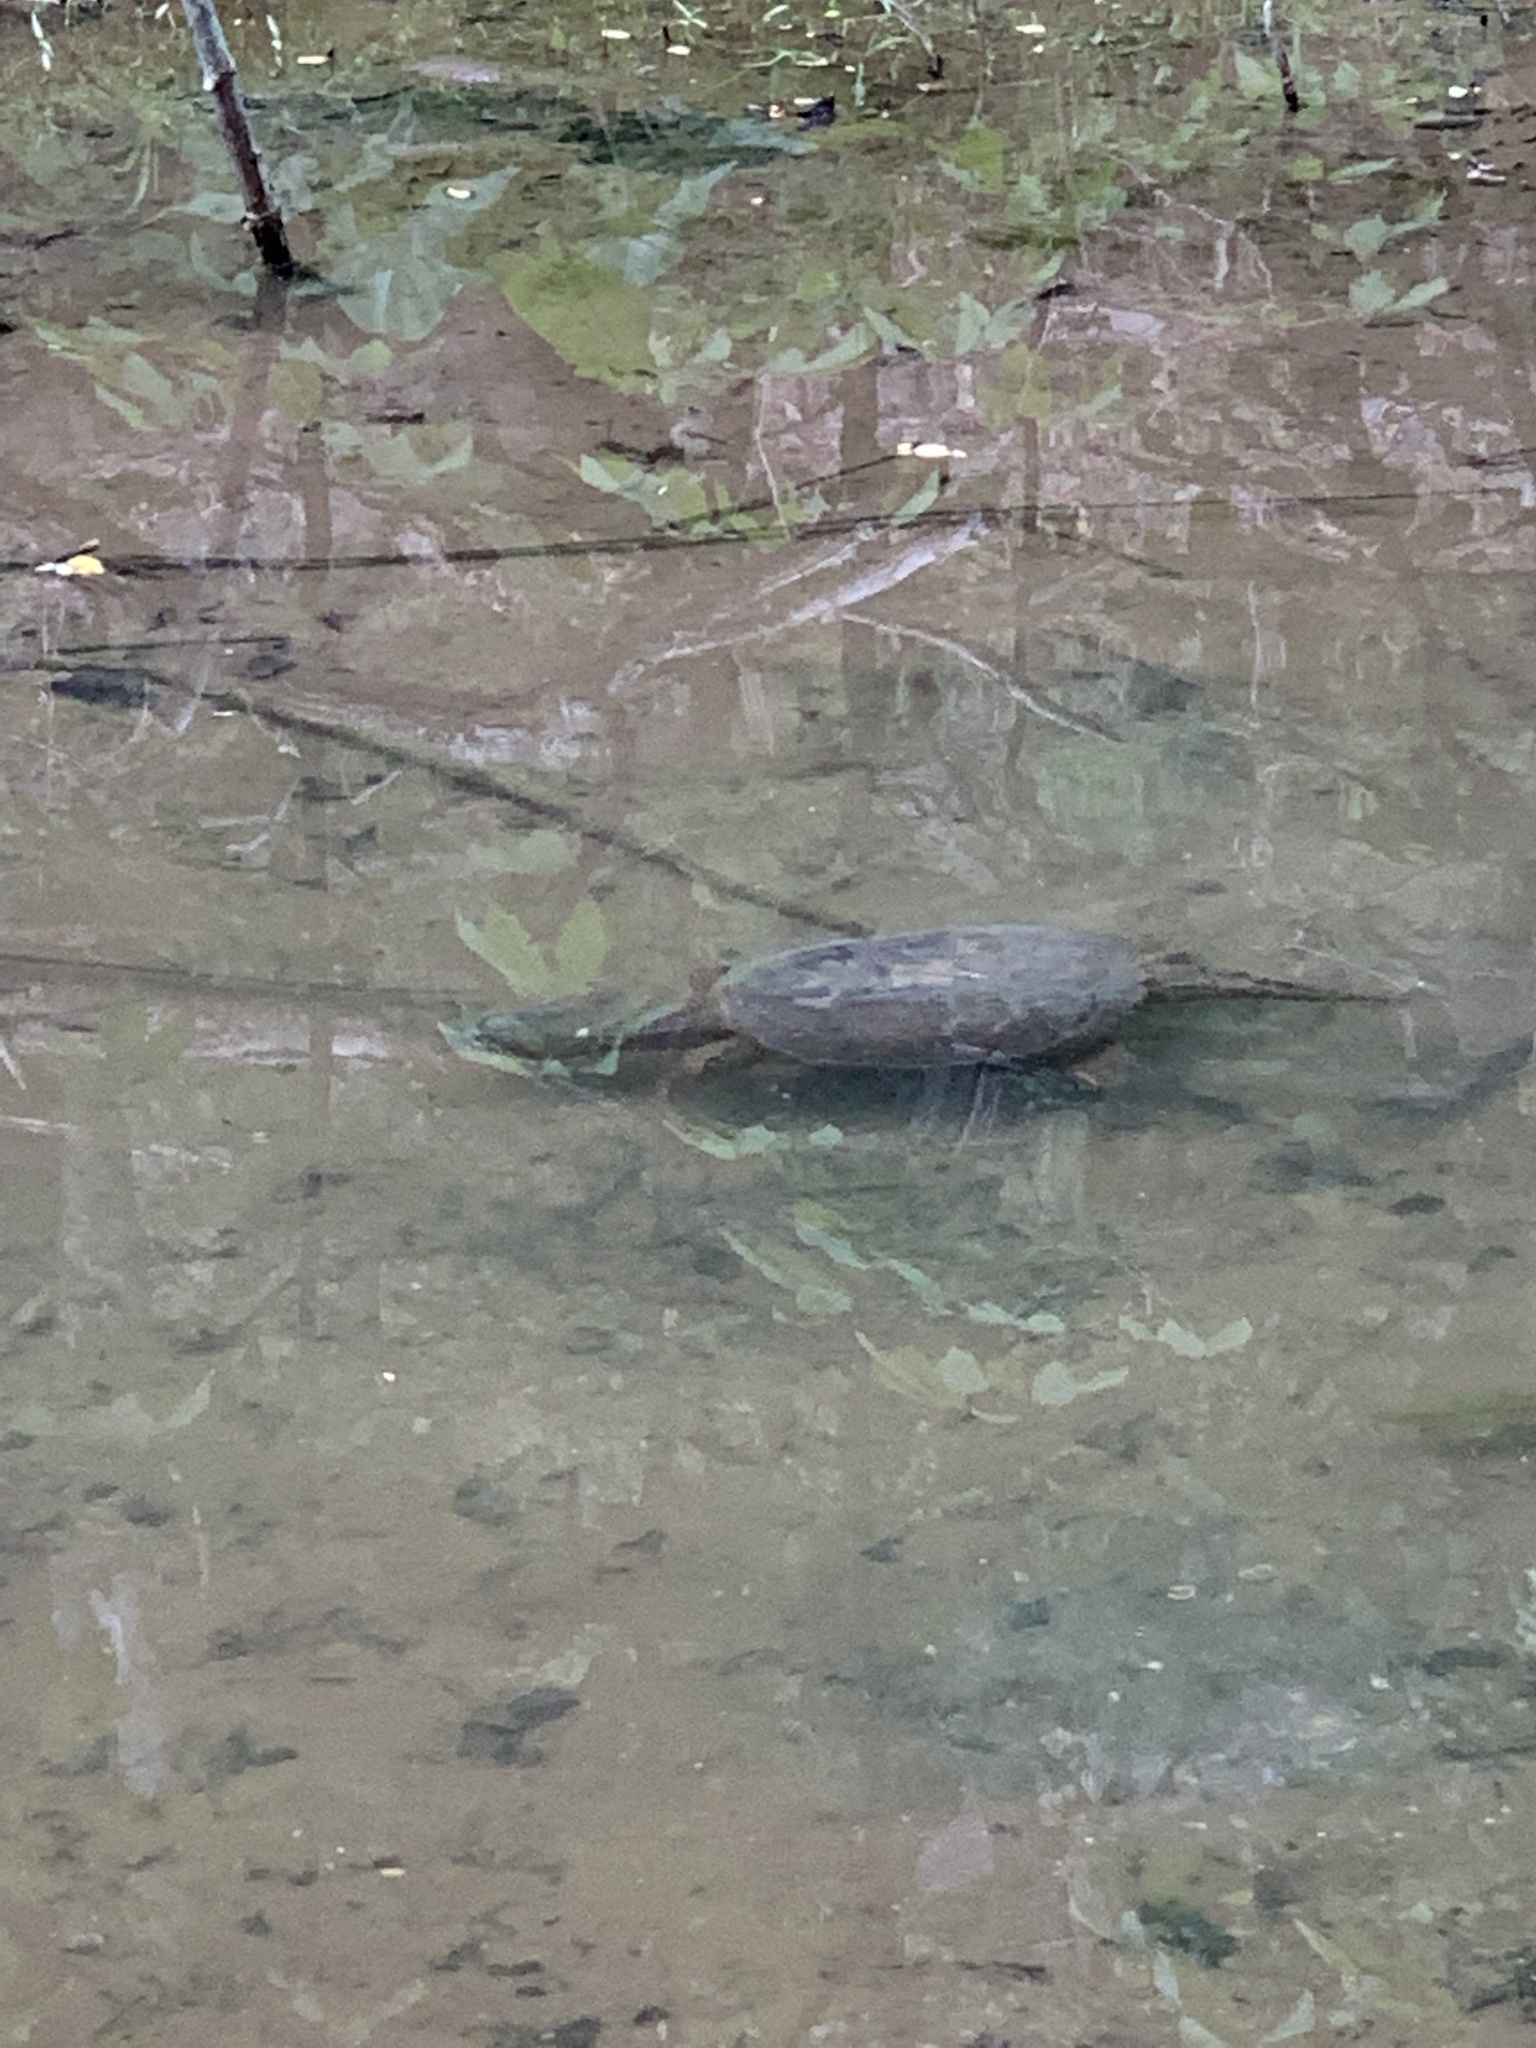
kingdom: Animalia
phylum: Chordata
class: Testudines
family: Chelydridae
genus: Chelydra
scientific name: Chelydra serpentina
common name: Common snapping turtle
